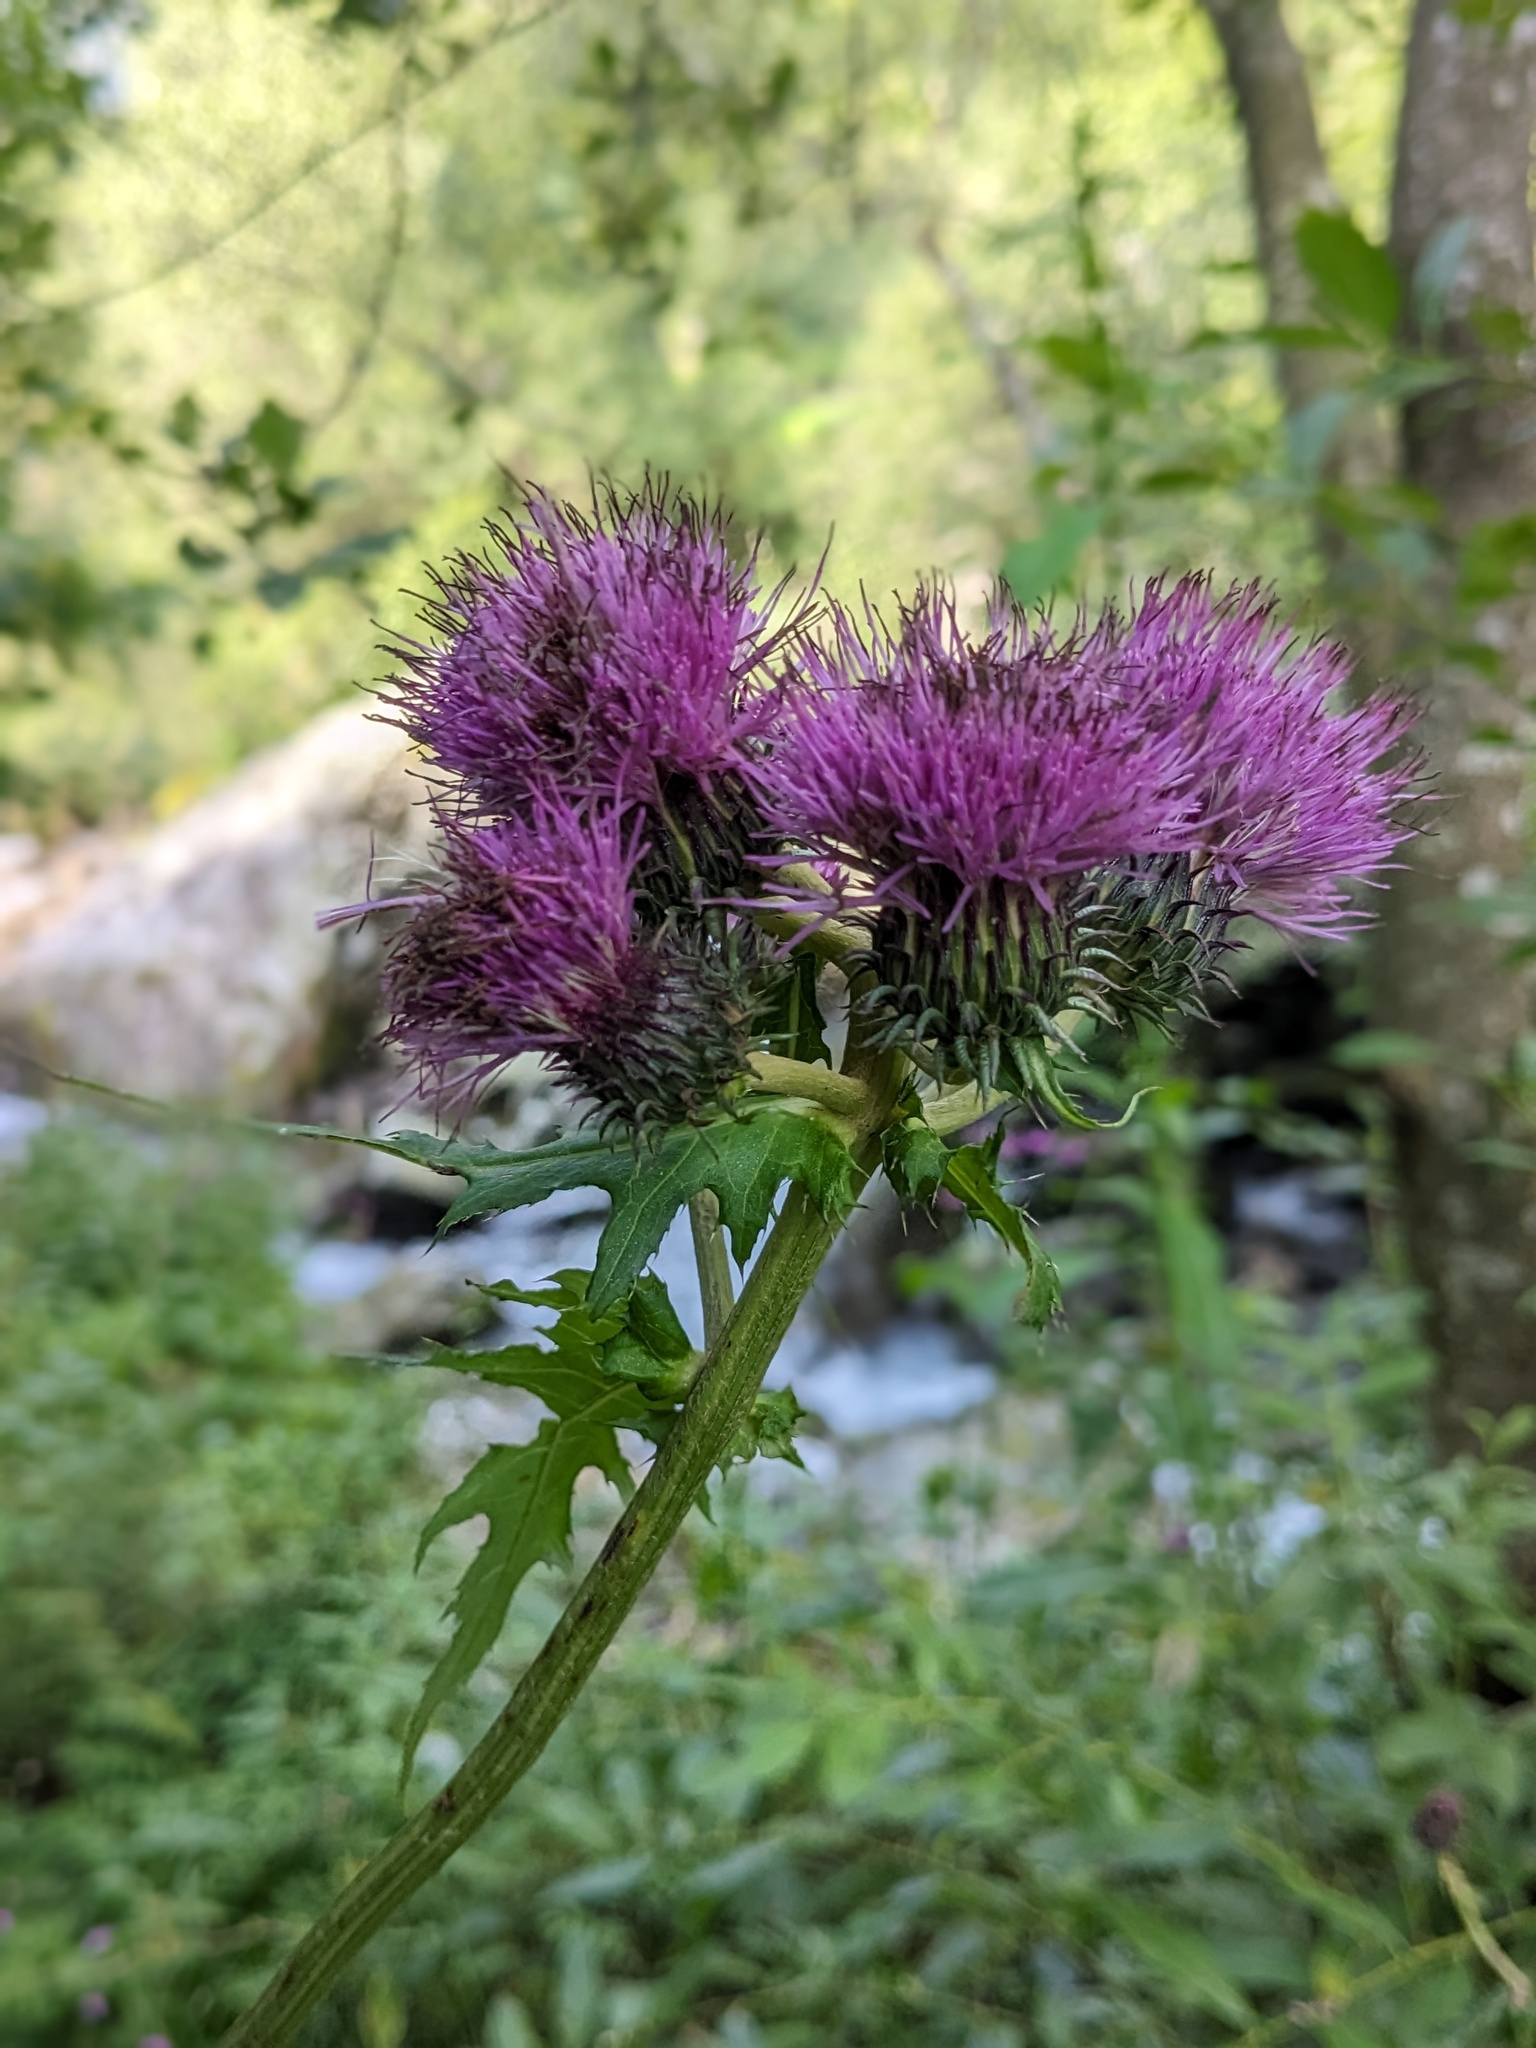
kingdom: Plantae
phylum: Tracheophyta
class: Magnoliopsida
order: Asterales
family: Asteraceae
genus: Cirsium
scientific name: Cirsium alsophilum
